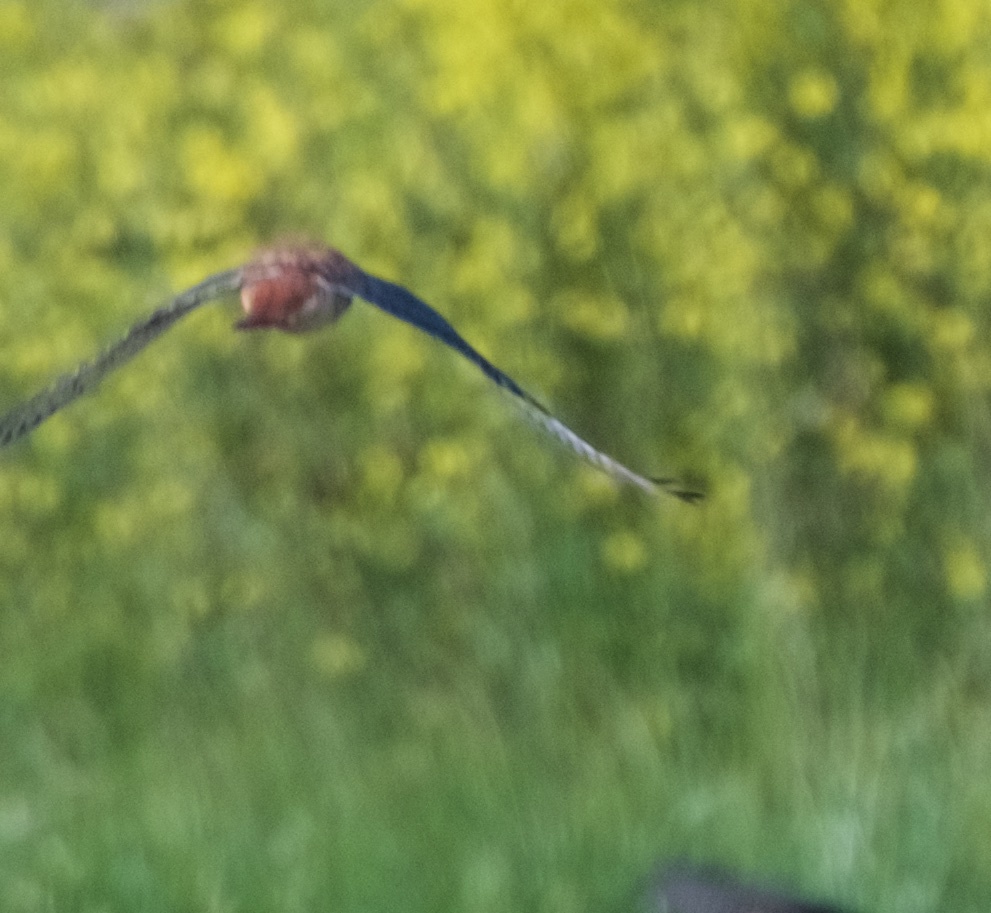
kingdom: Animalia
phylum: Chordata
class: Aves
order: Falconiformes
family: Falconidae
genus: Falco
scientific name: Falco sparverius
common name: American kestrel
